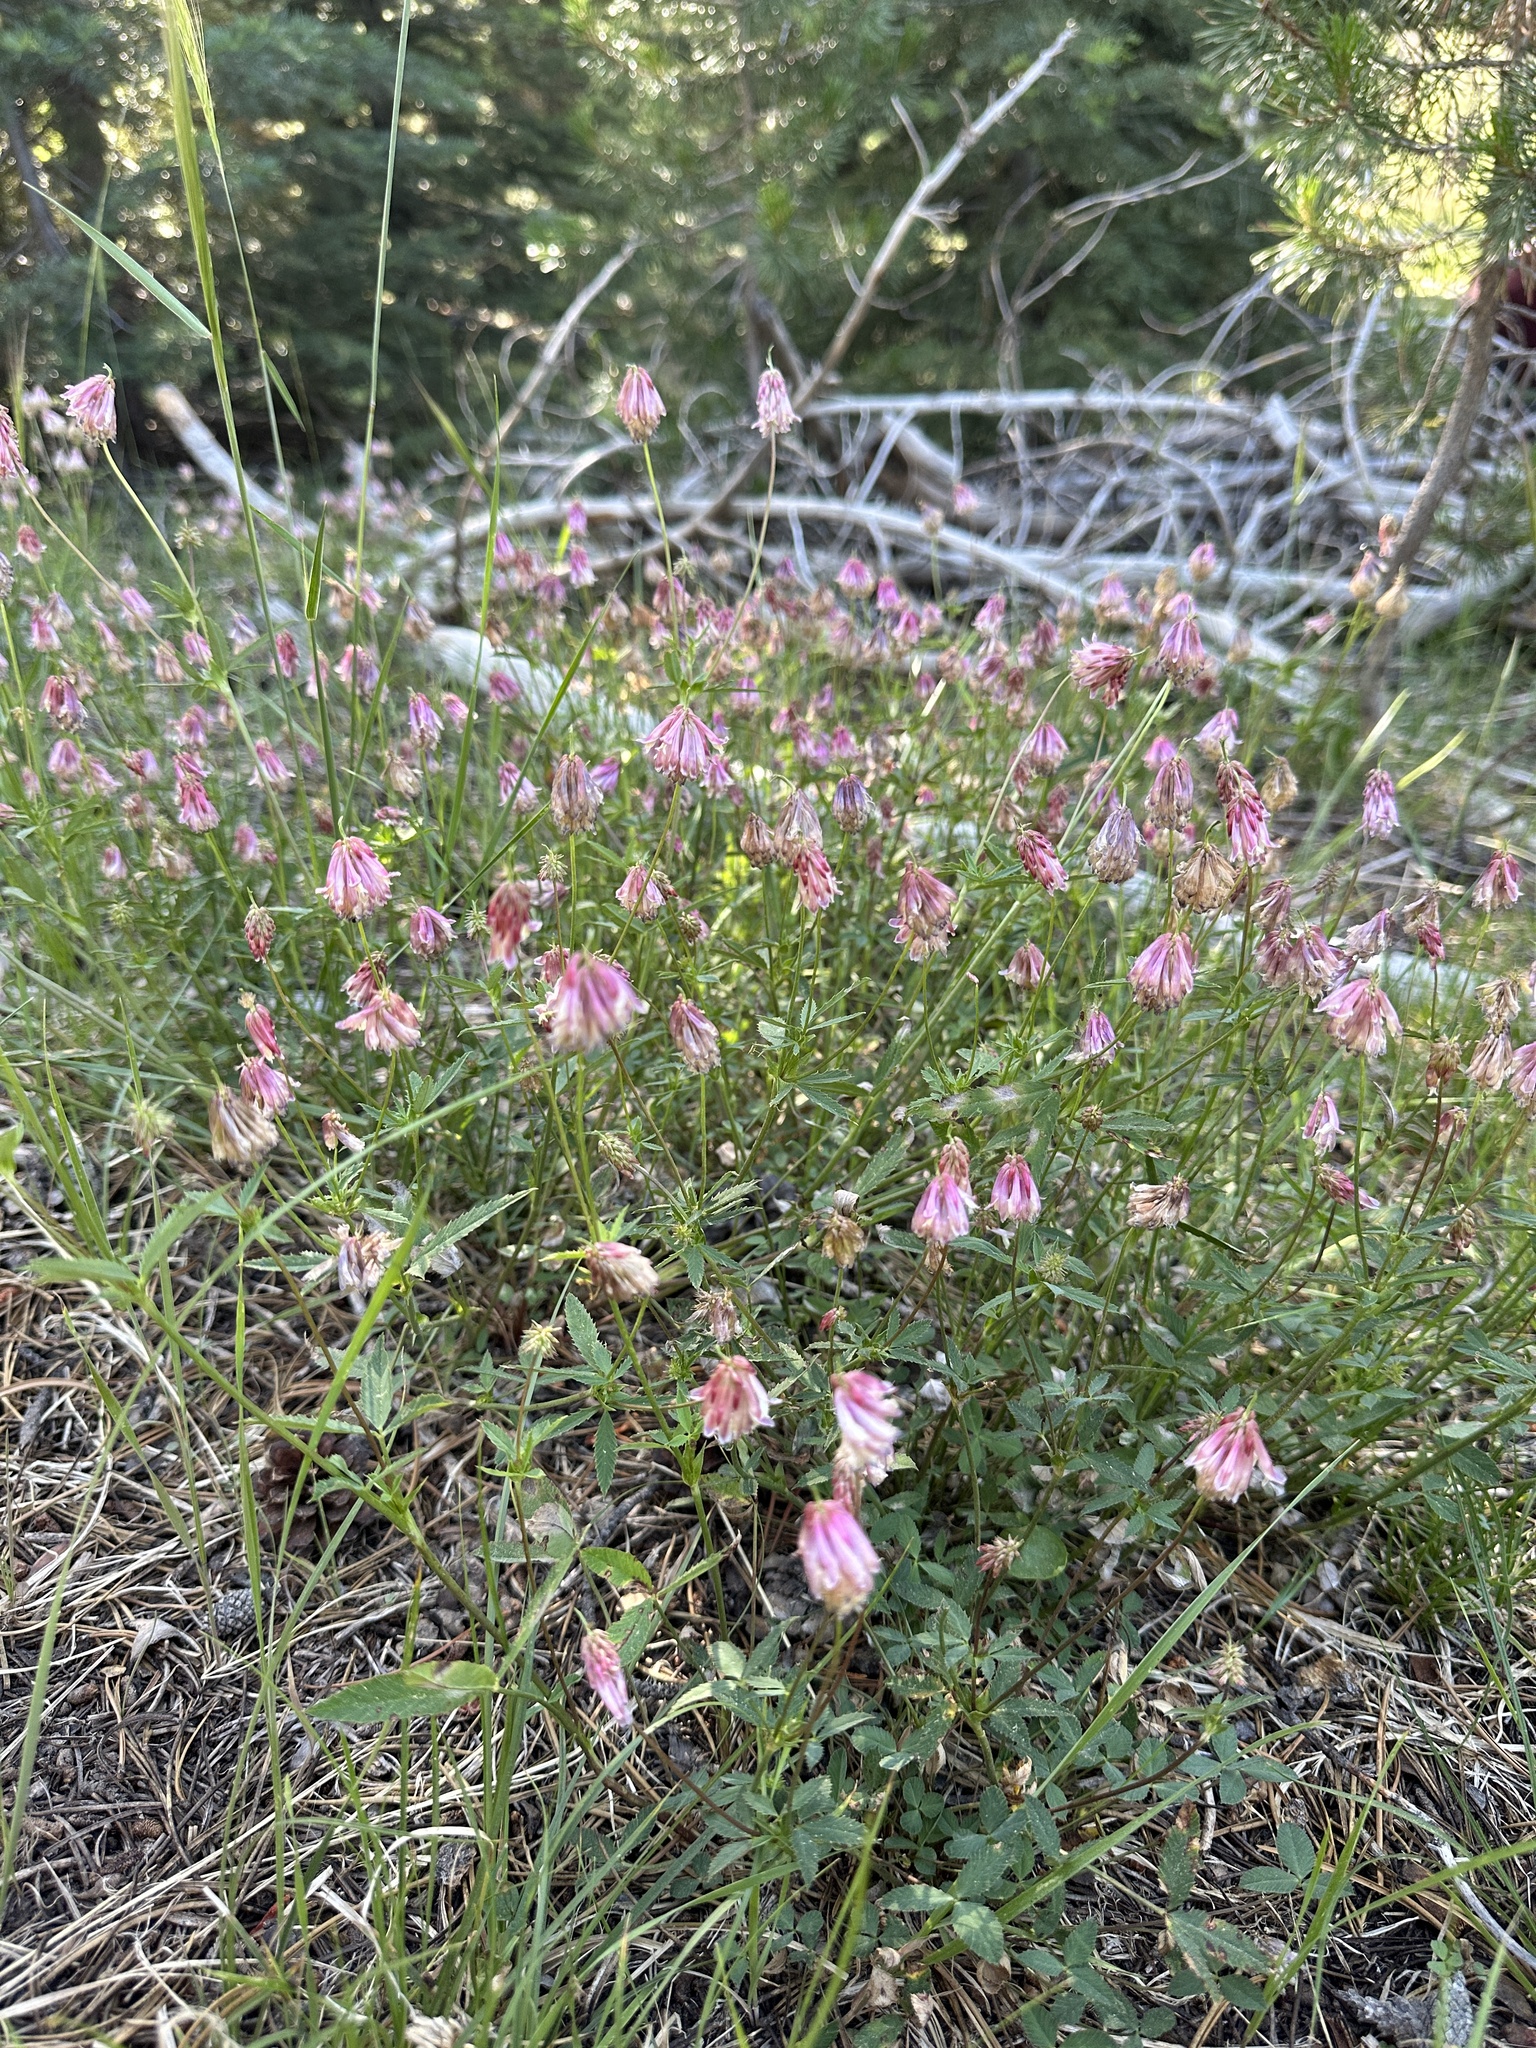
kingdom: Plantae
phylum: Tracheophyta
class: Magnoliopsida
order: Fabales
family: Fabaceae
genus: Trifolium
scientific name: Trifolium productum
